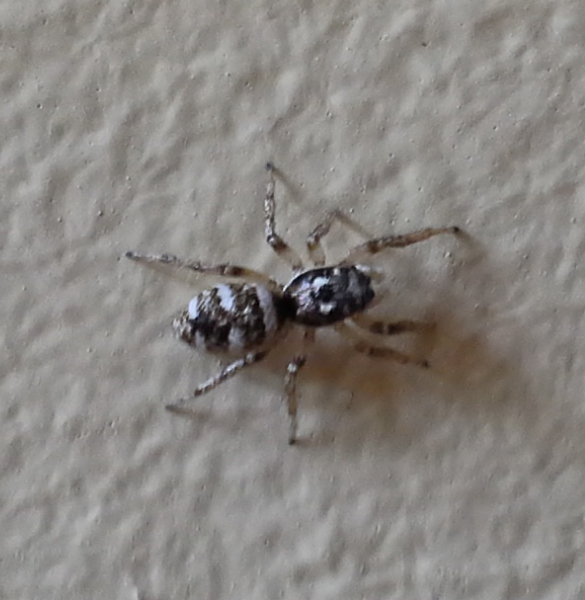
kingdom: Animalia
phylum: Arthropoda
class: Arachnida
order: Araneae
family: Salticidae
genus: Salticus
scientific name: Salticus scenicus
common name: Zebra jumper
